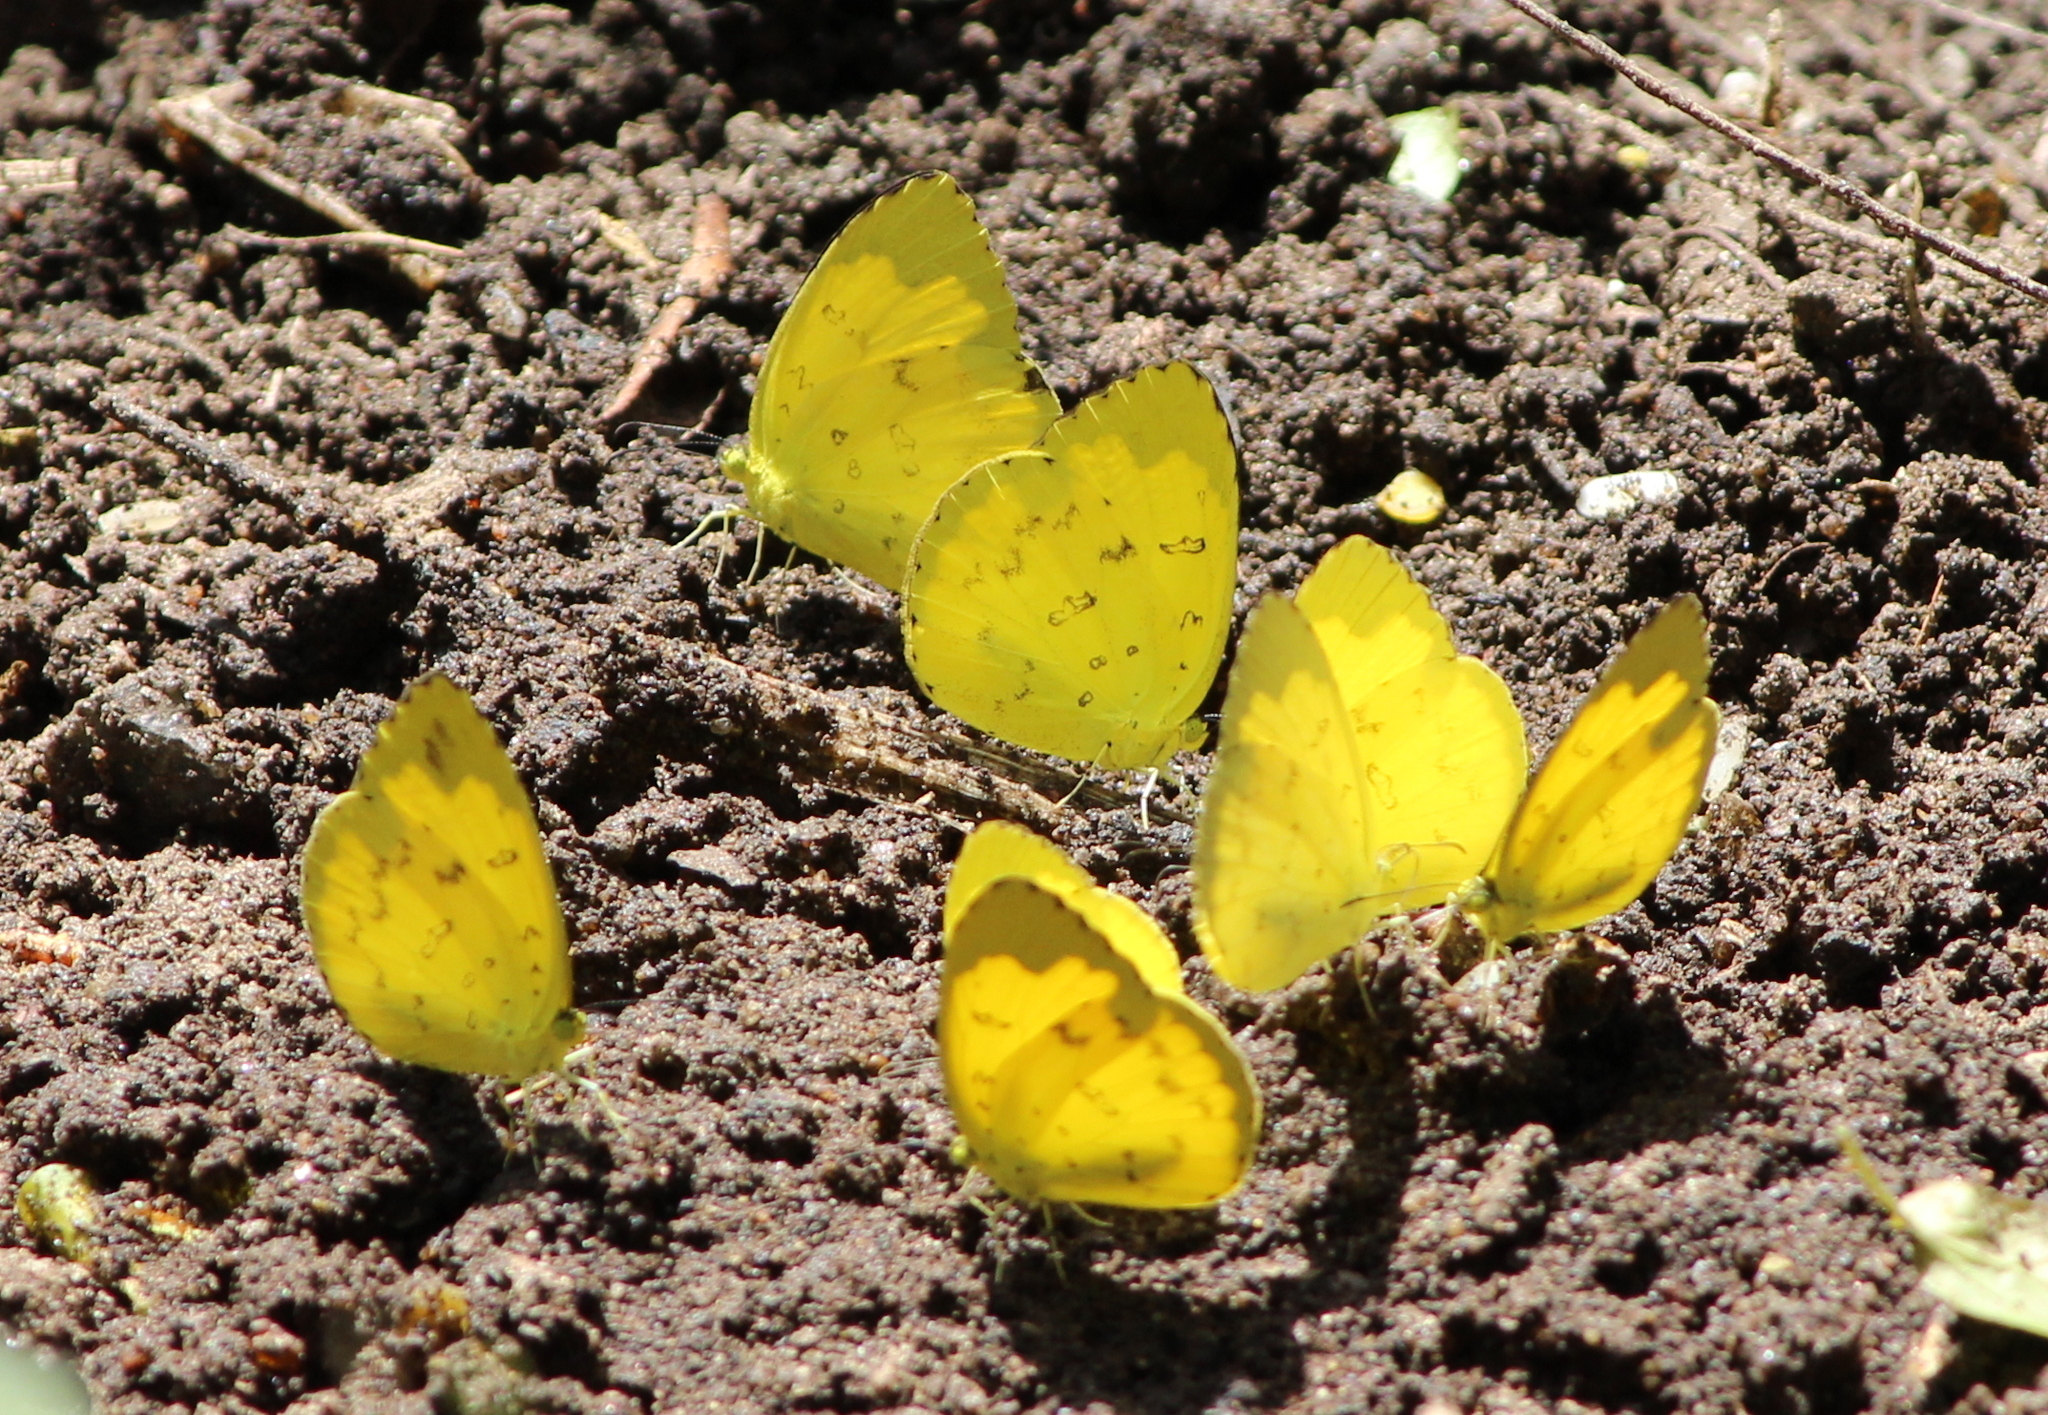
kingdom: Animalia
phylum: Arthropoda
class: Insecta
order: Lepidoptera
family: Pieridae
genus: Eurema
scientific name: Eurema blanda
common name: Three-spot grass yellow
